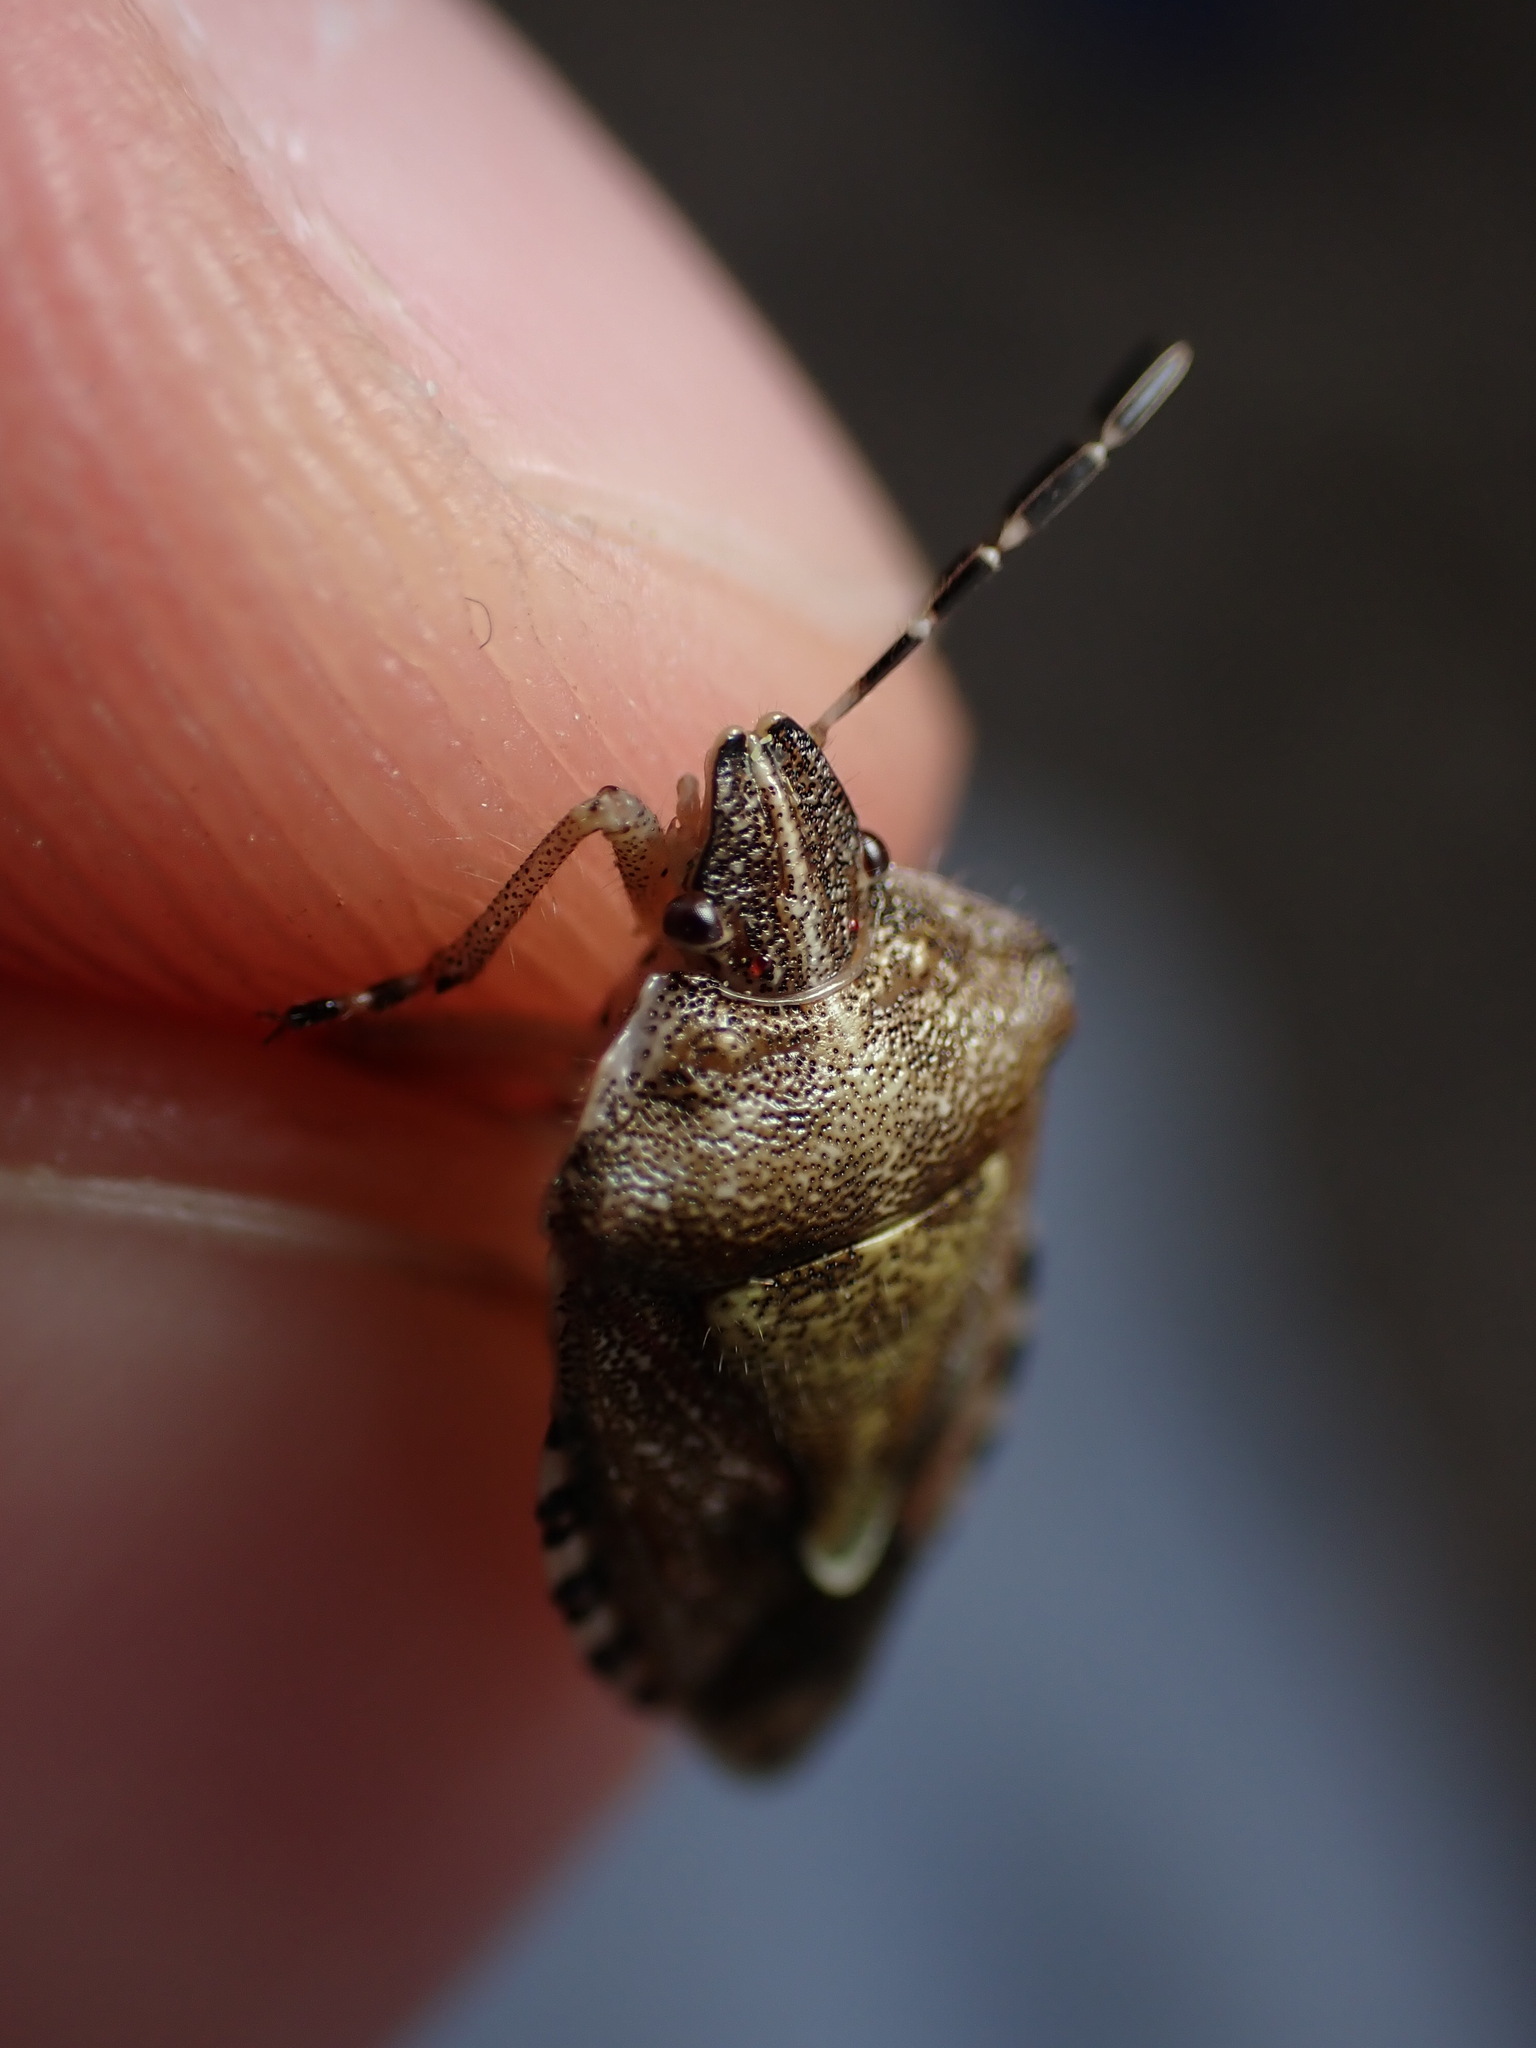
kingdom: Animalia
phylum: Arthropoda
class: Insecta
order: Hemiptera
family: Pentatomidae
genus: Dolycoris
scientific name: Dolycoris baccarum
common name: Sloe bug
